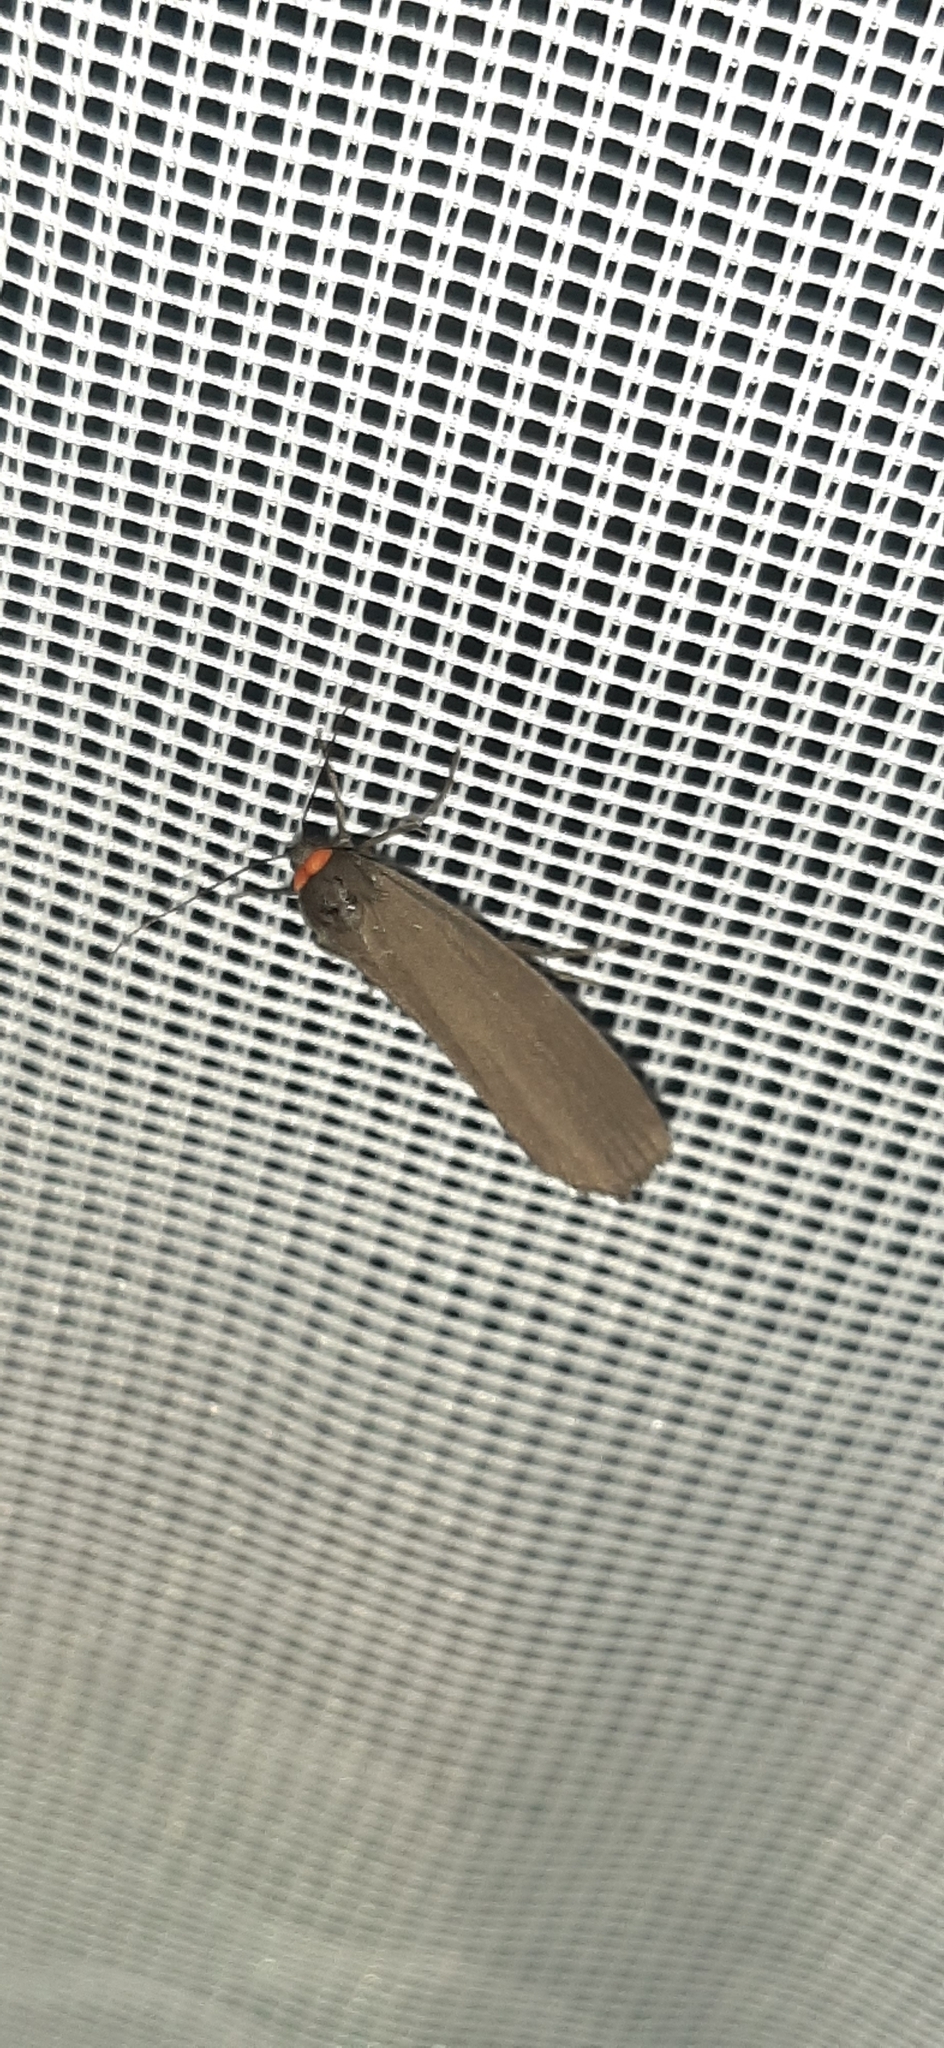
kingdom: Animalia
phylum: Arthropoda
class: Insecta
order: Lepidoptera
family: Erebidae
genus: Atolmis
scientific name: Atolmis rubricollis
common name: Red-necked footman
